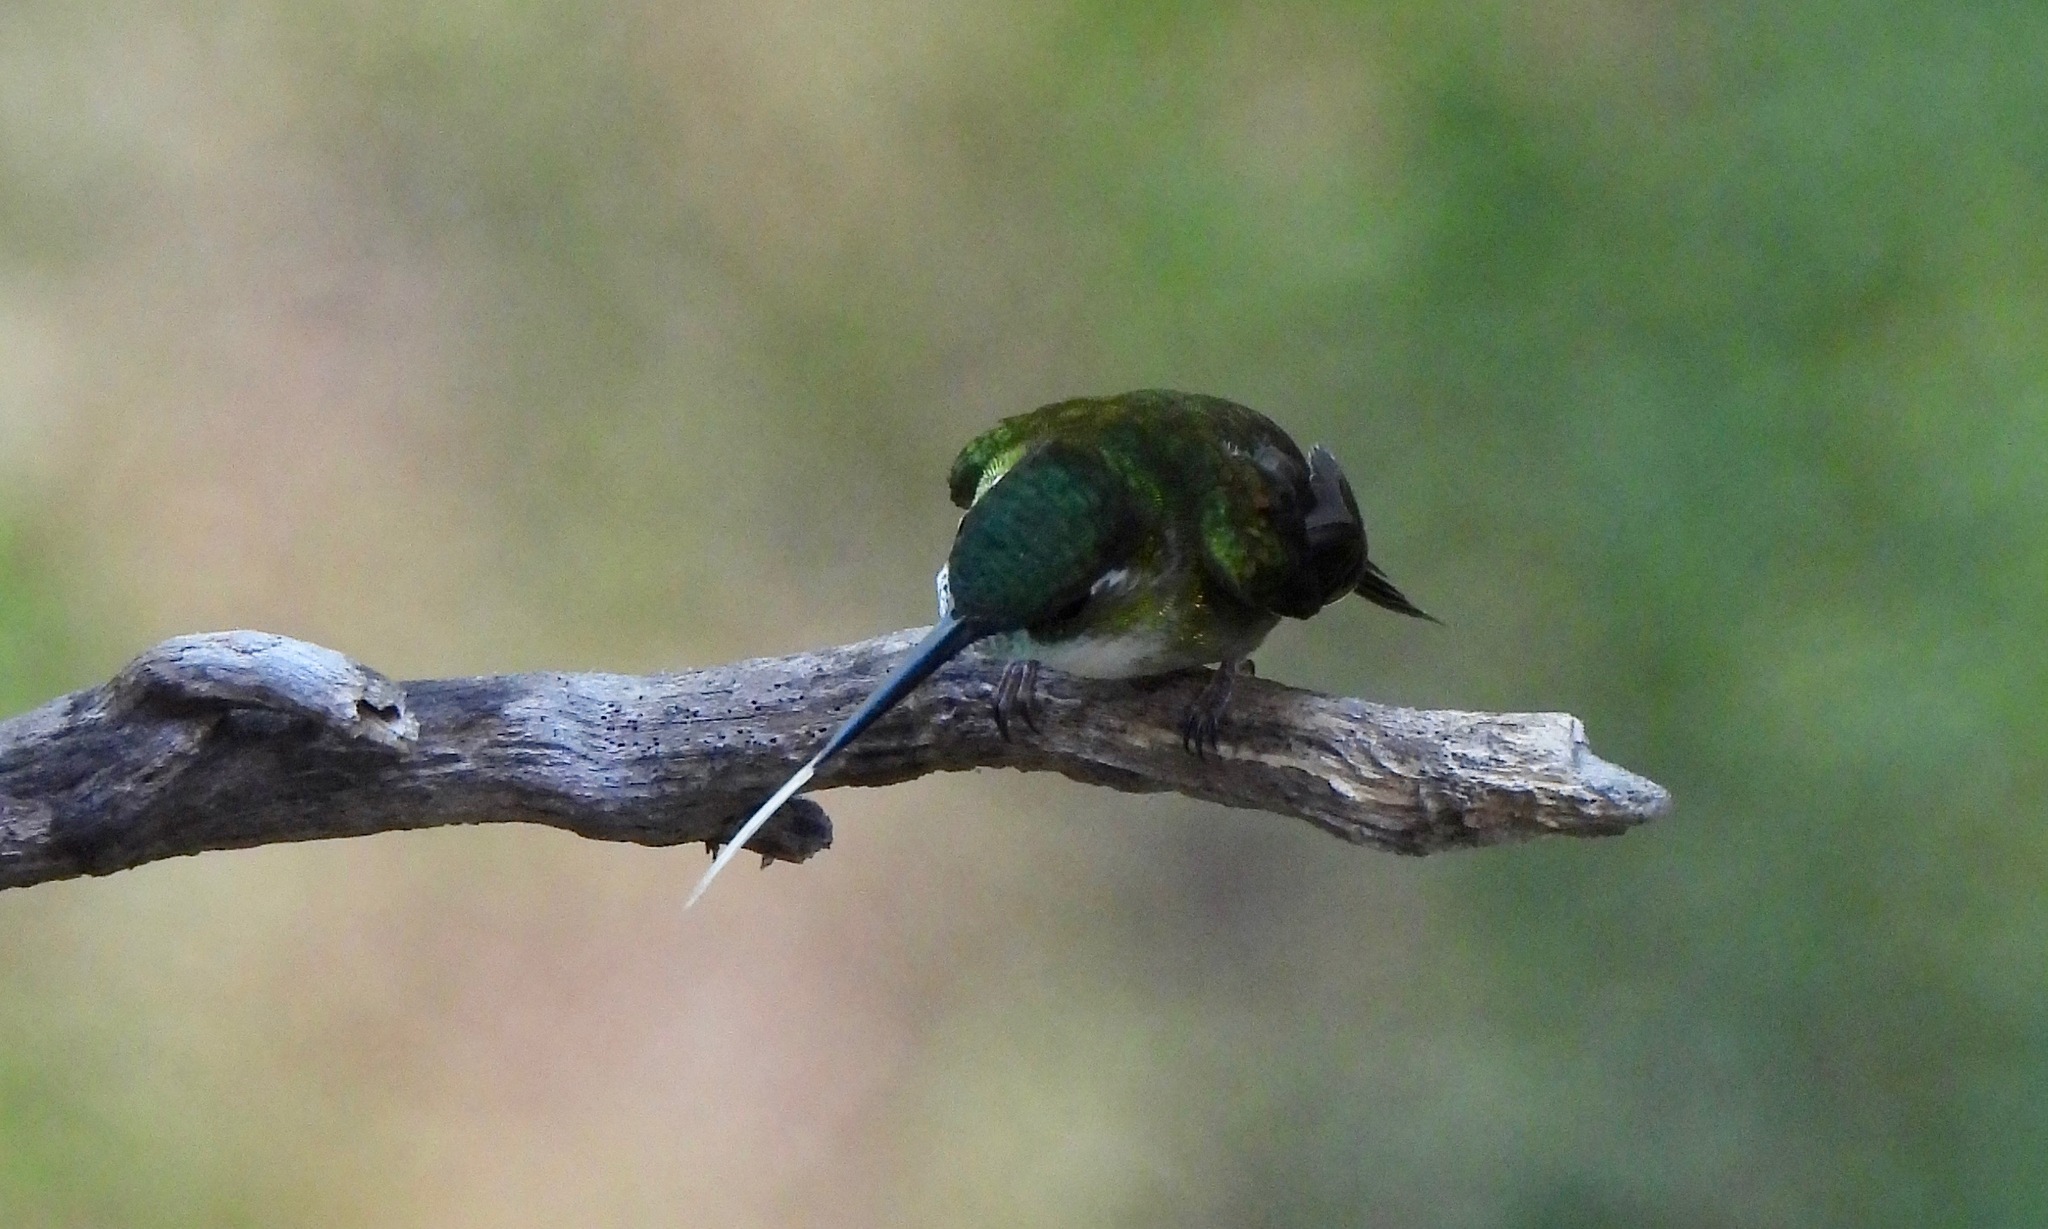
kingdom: Animalia
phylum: Chordata
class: Aves
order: Apodiformes
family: Trochilidae
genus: Lampornis
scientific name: Lampornis viridipallens
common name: Green-throated mountain-gem
